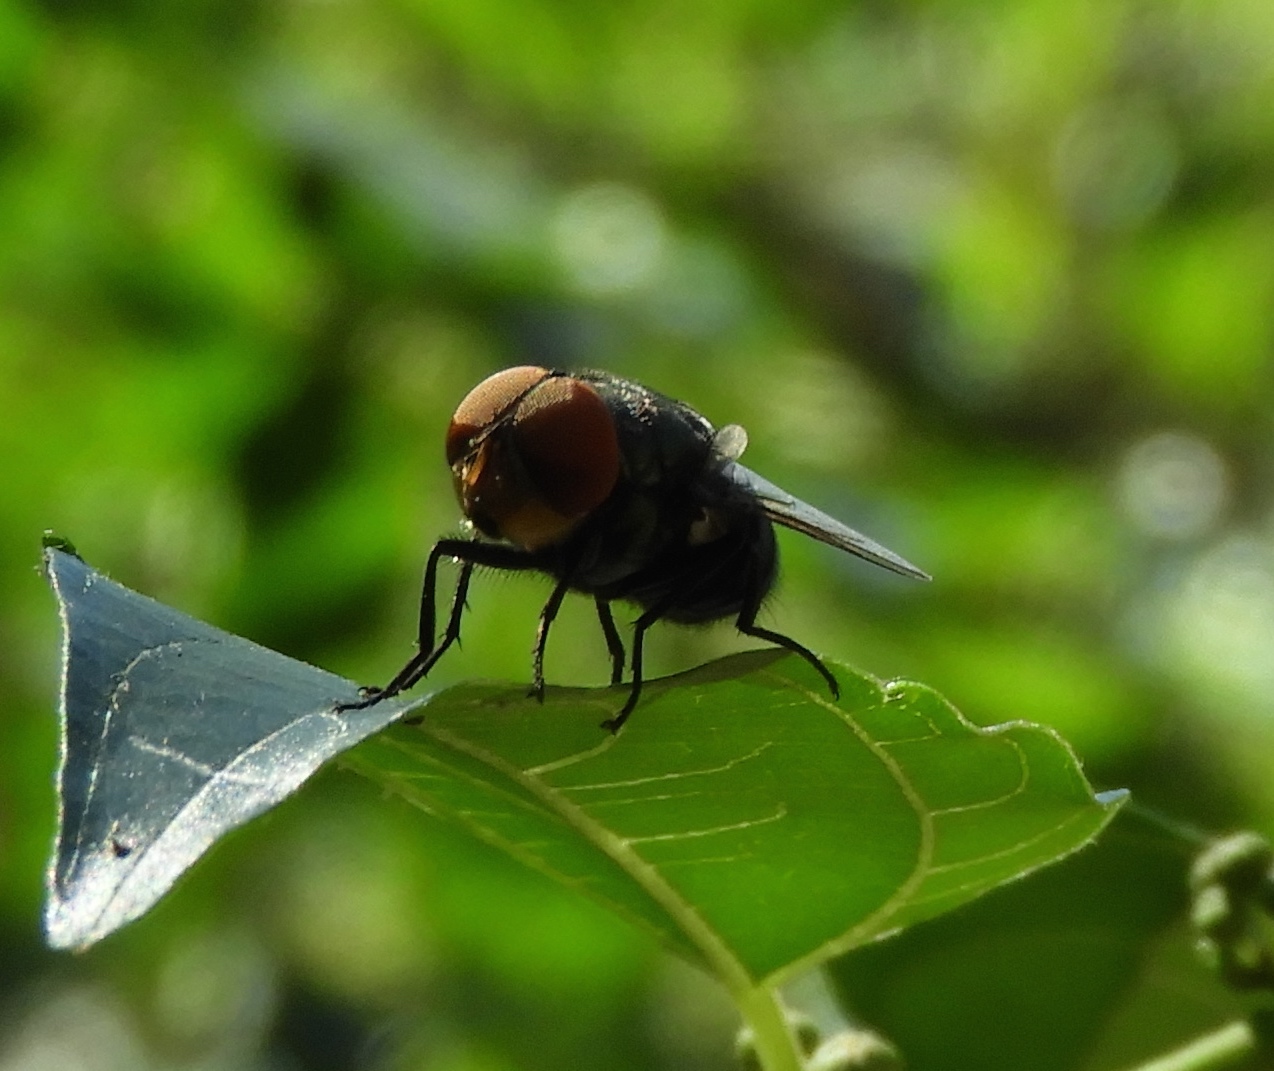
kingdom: Animalia
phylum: Arthropoda
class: Insecta
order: Diptera
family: Calliphoridae
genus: Chrysomya
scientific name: Chrysomya megacephala
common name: Blow fly
